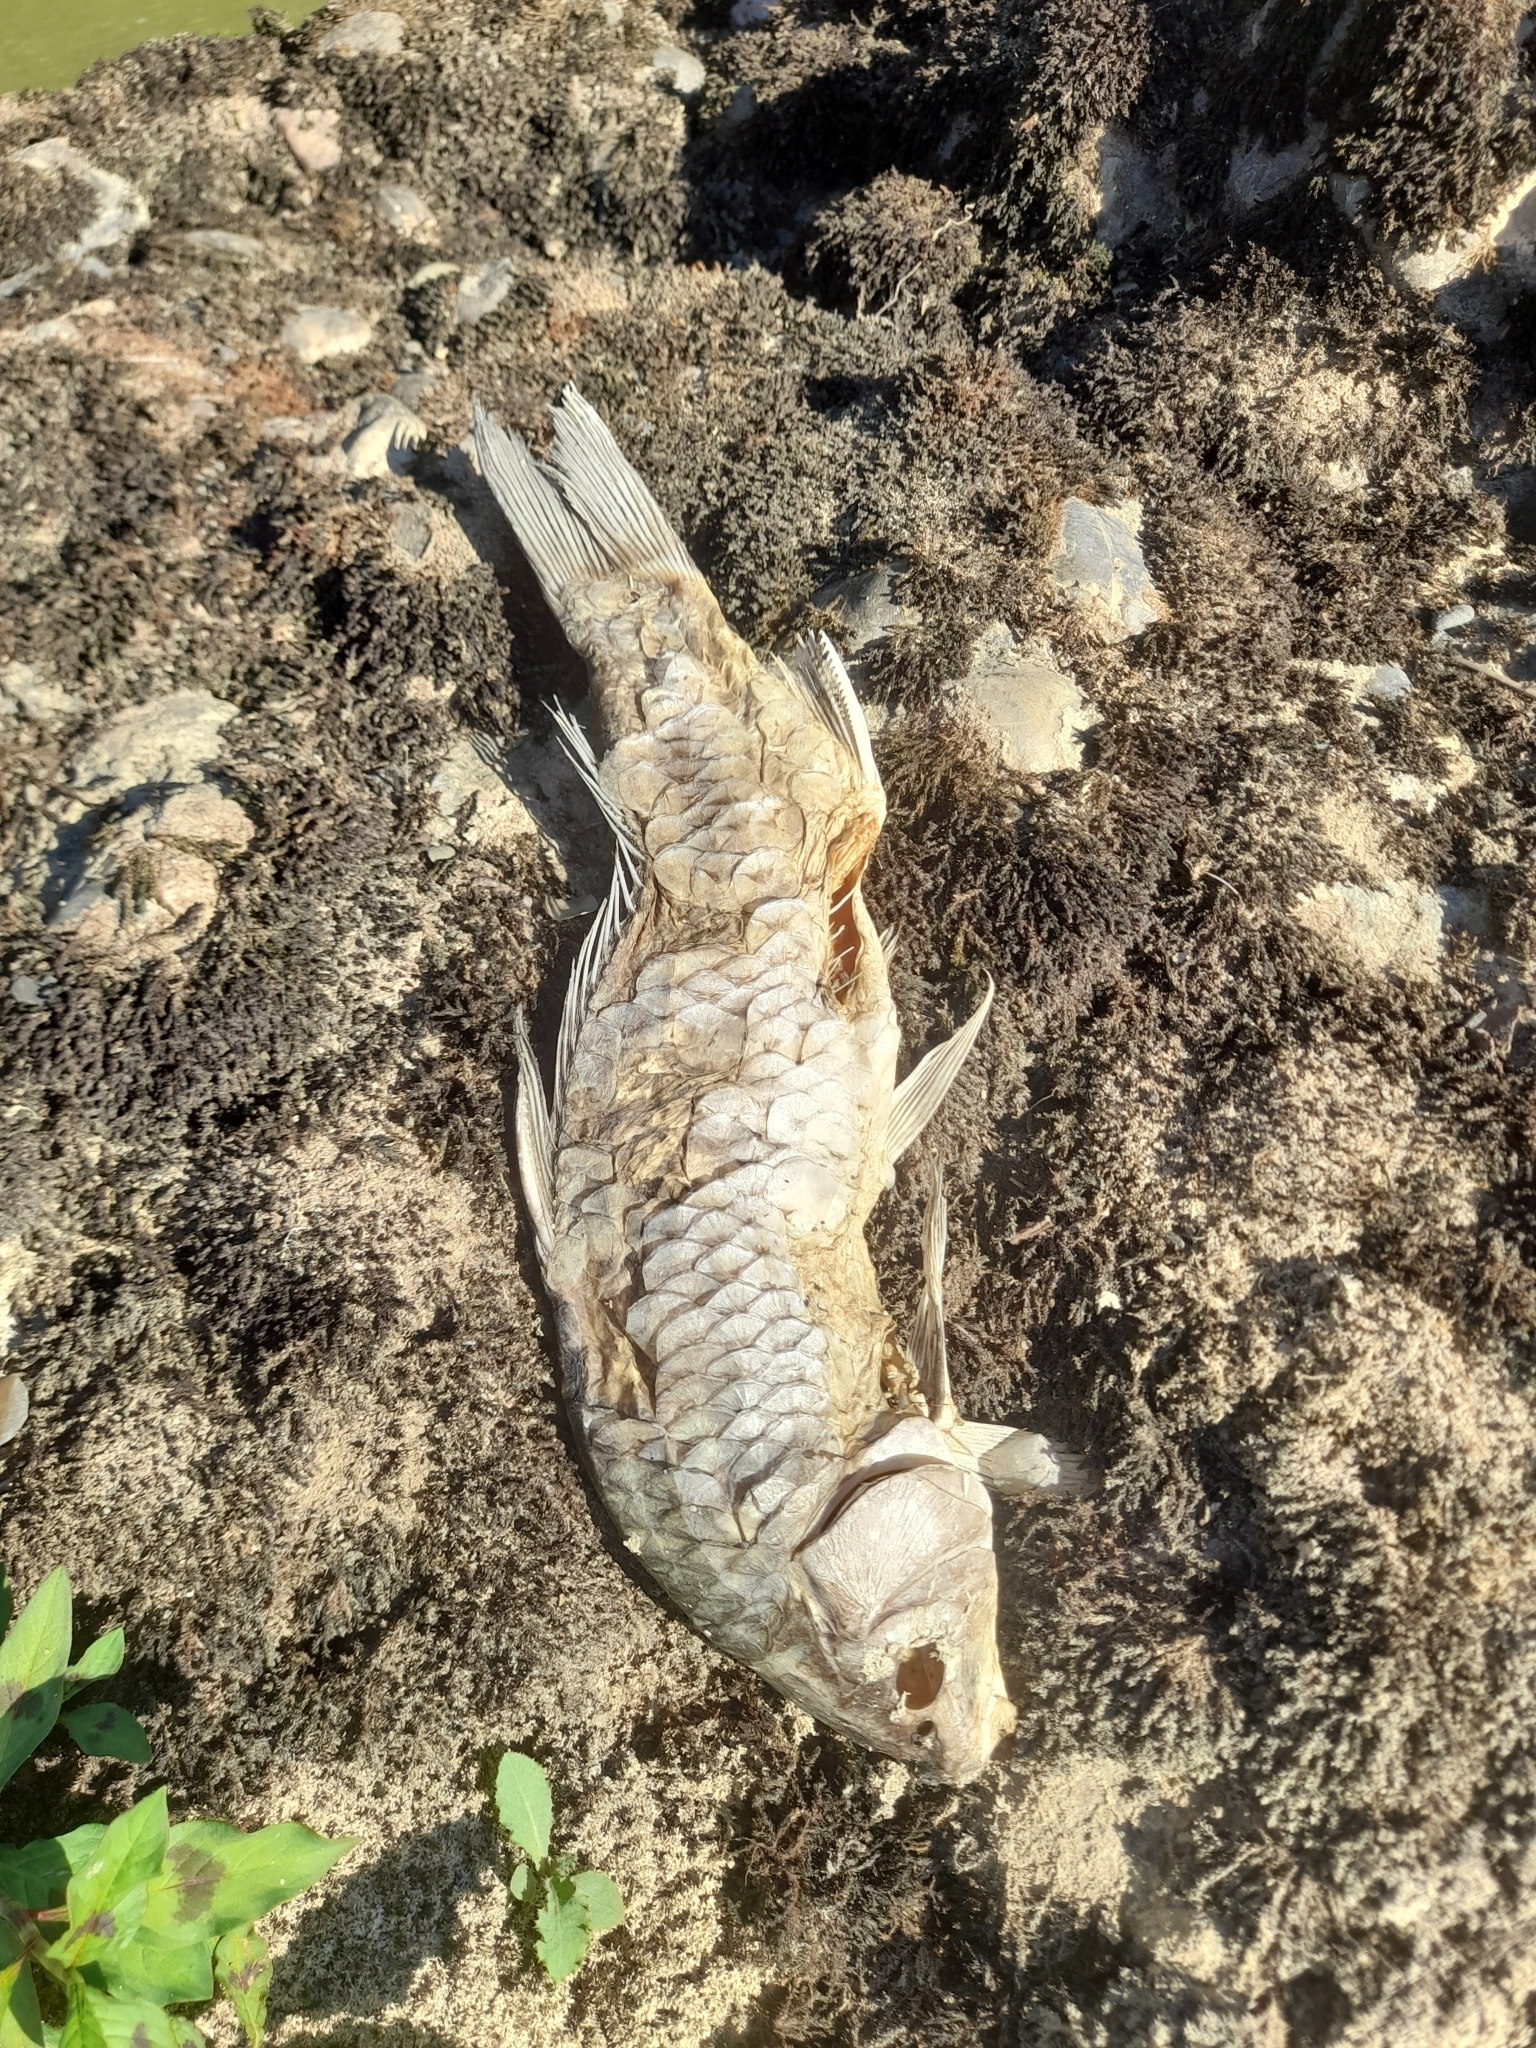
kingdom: Animalia
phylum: Chordata
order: Cypriniformes
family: Cyprinidae
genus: Cyprinus
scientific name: Cyprinus carpio
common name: Common carp
